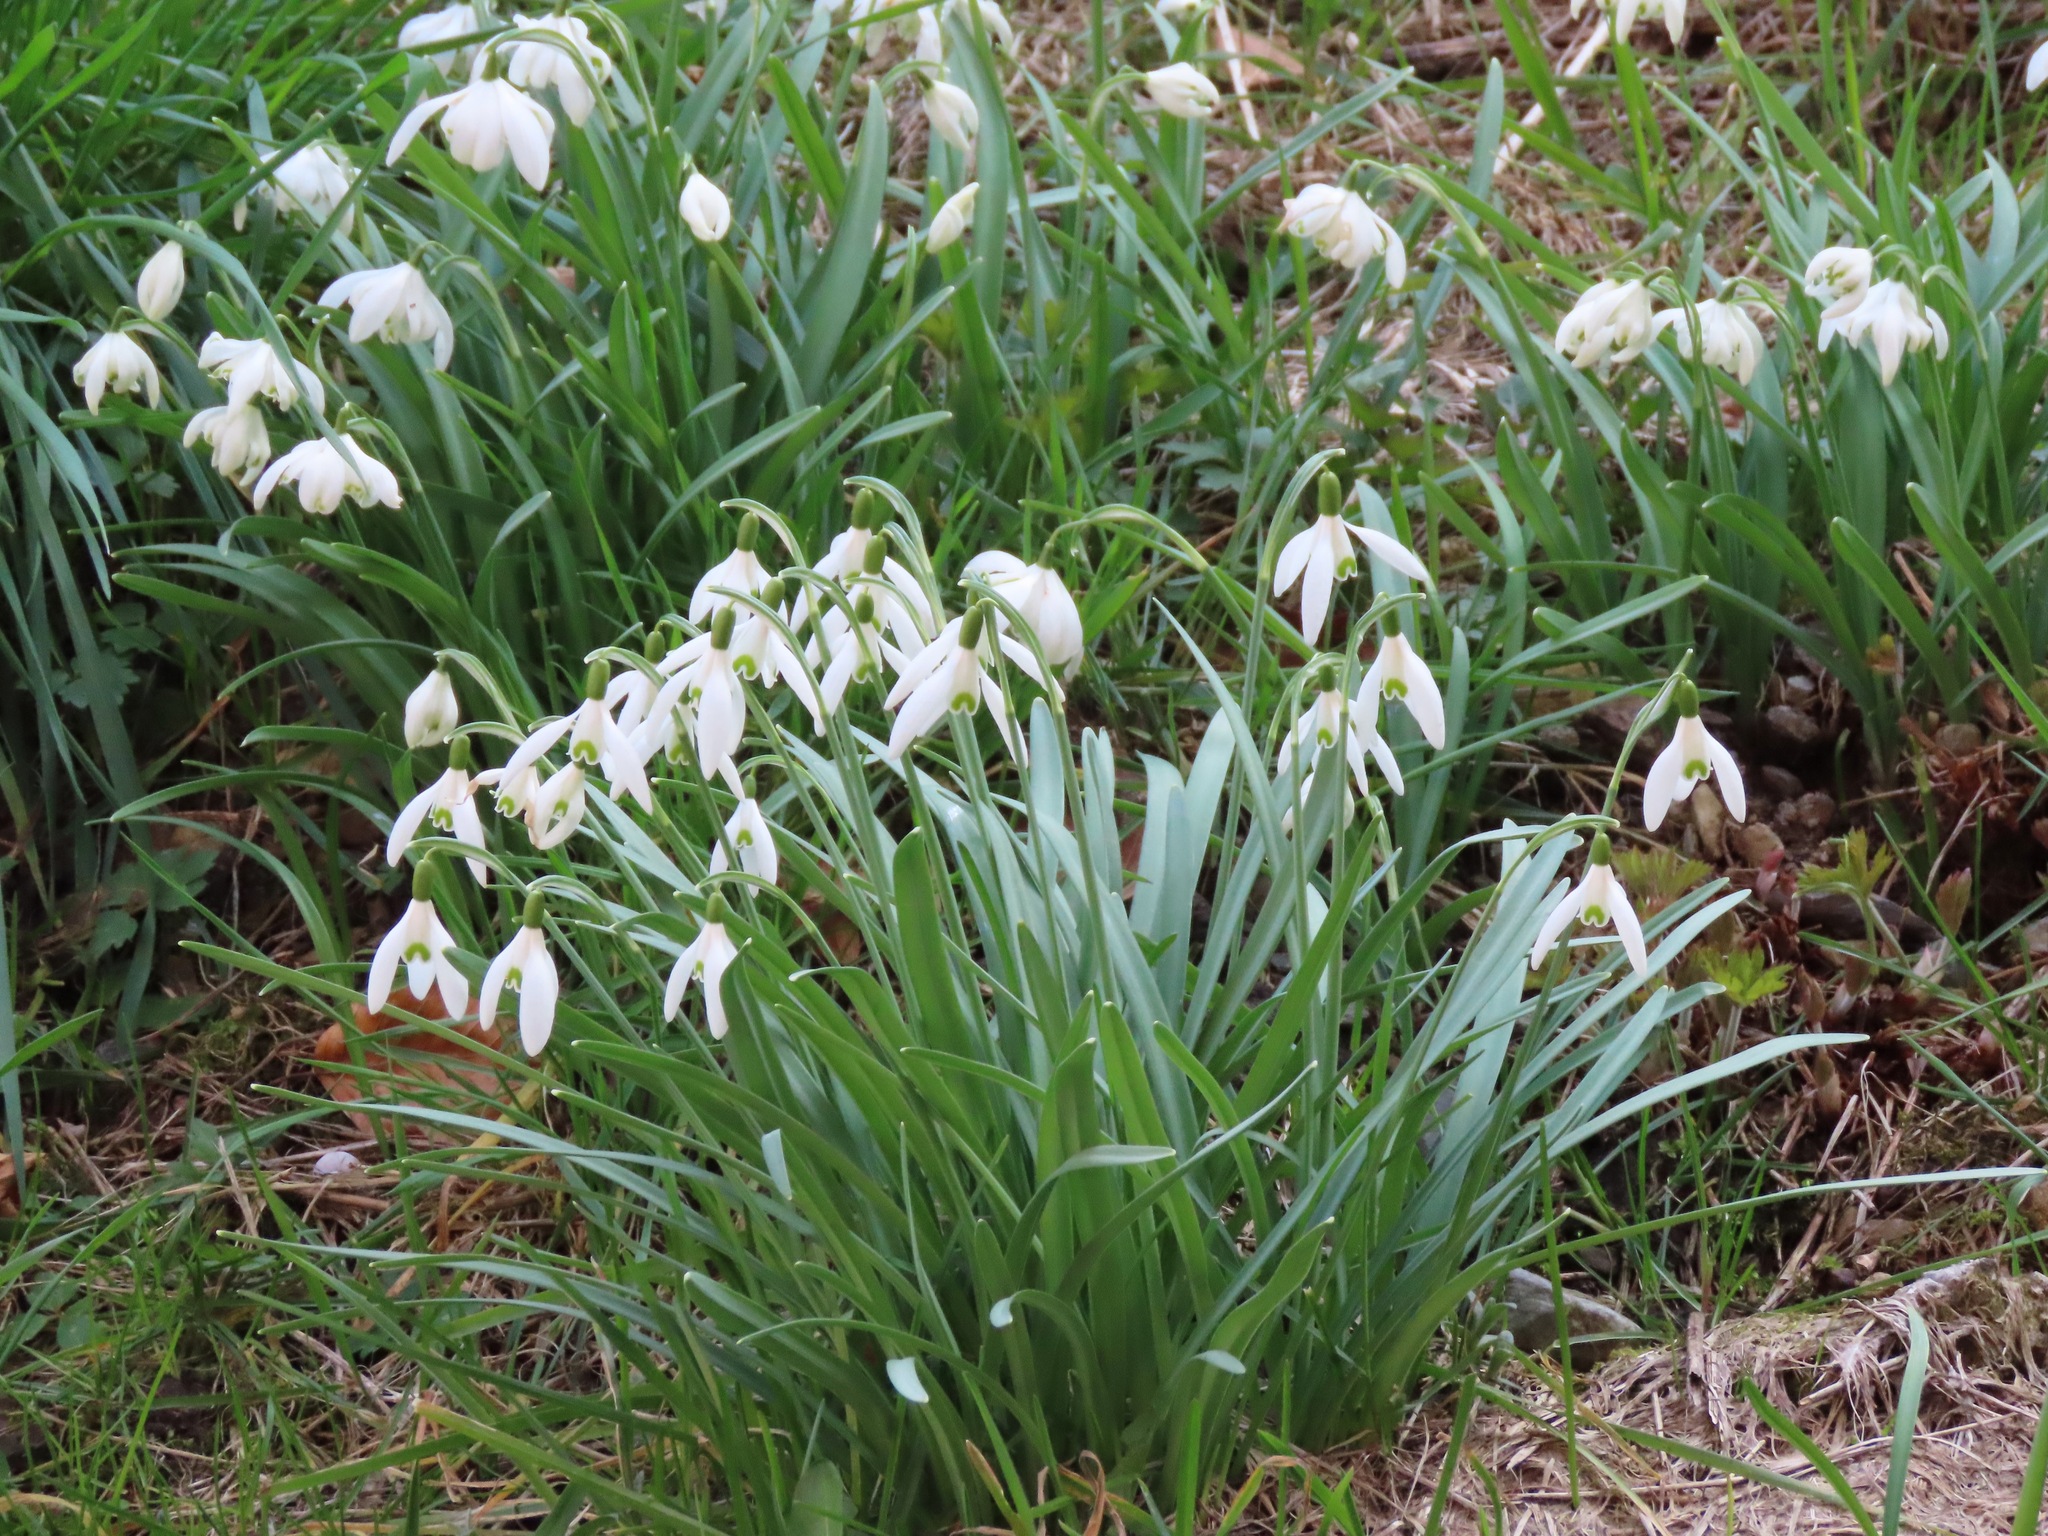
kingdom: Plantae
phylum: Tracheophyta
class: Liliopsida
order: Asparagales
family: Amaryllidaceae
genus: Galanthus
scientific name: Galanthus nivalis
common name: Snowdrop
